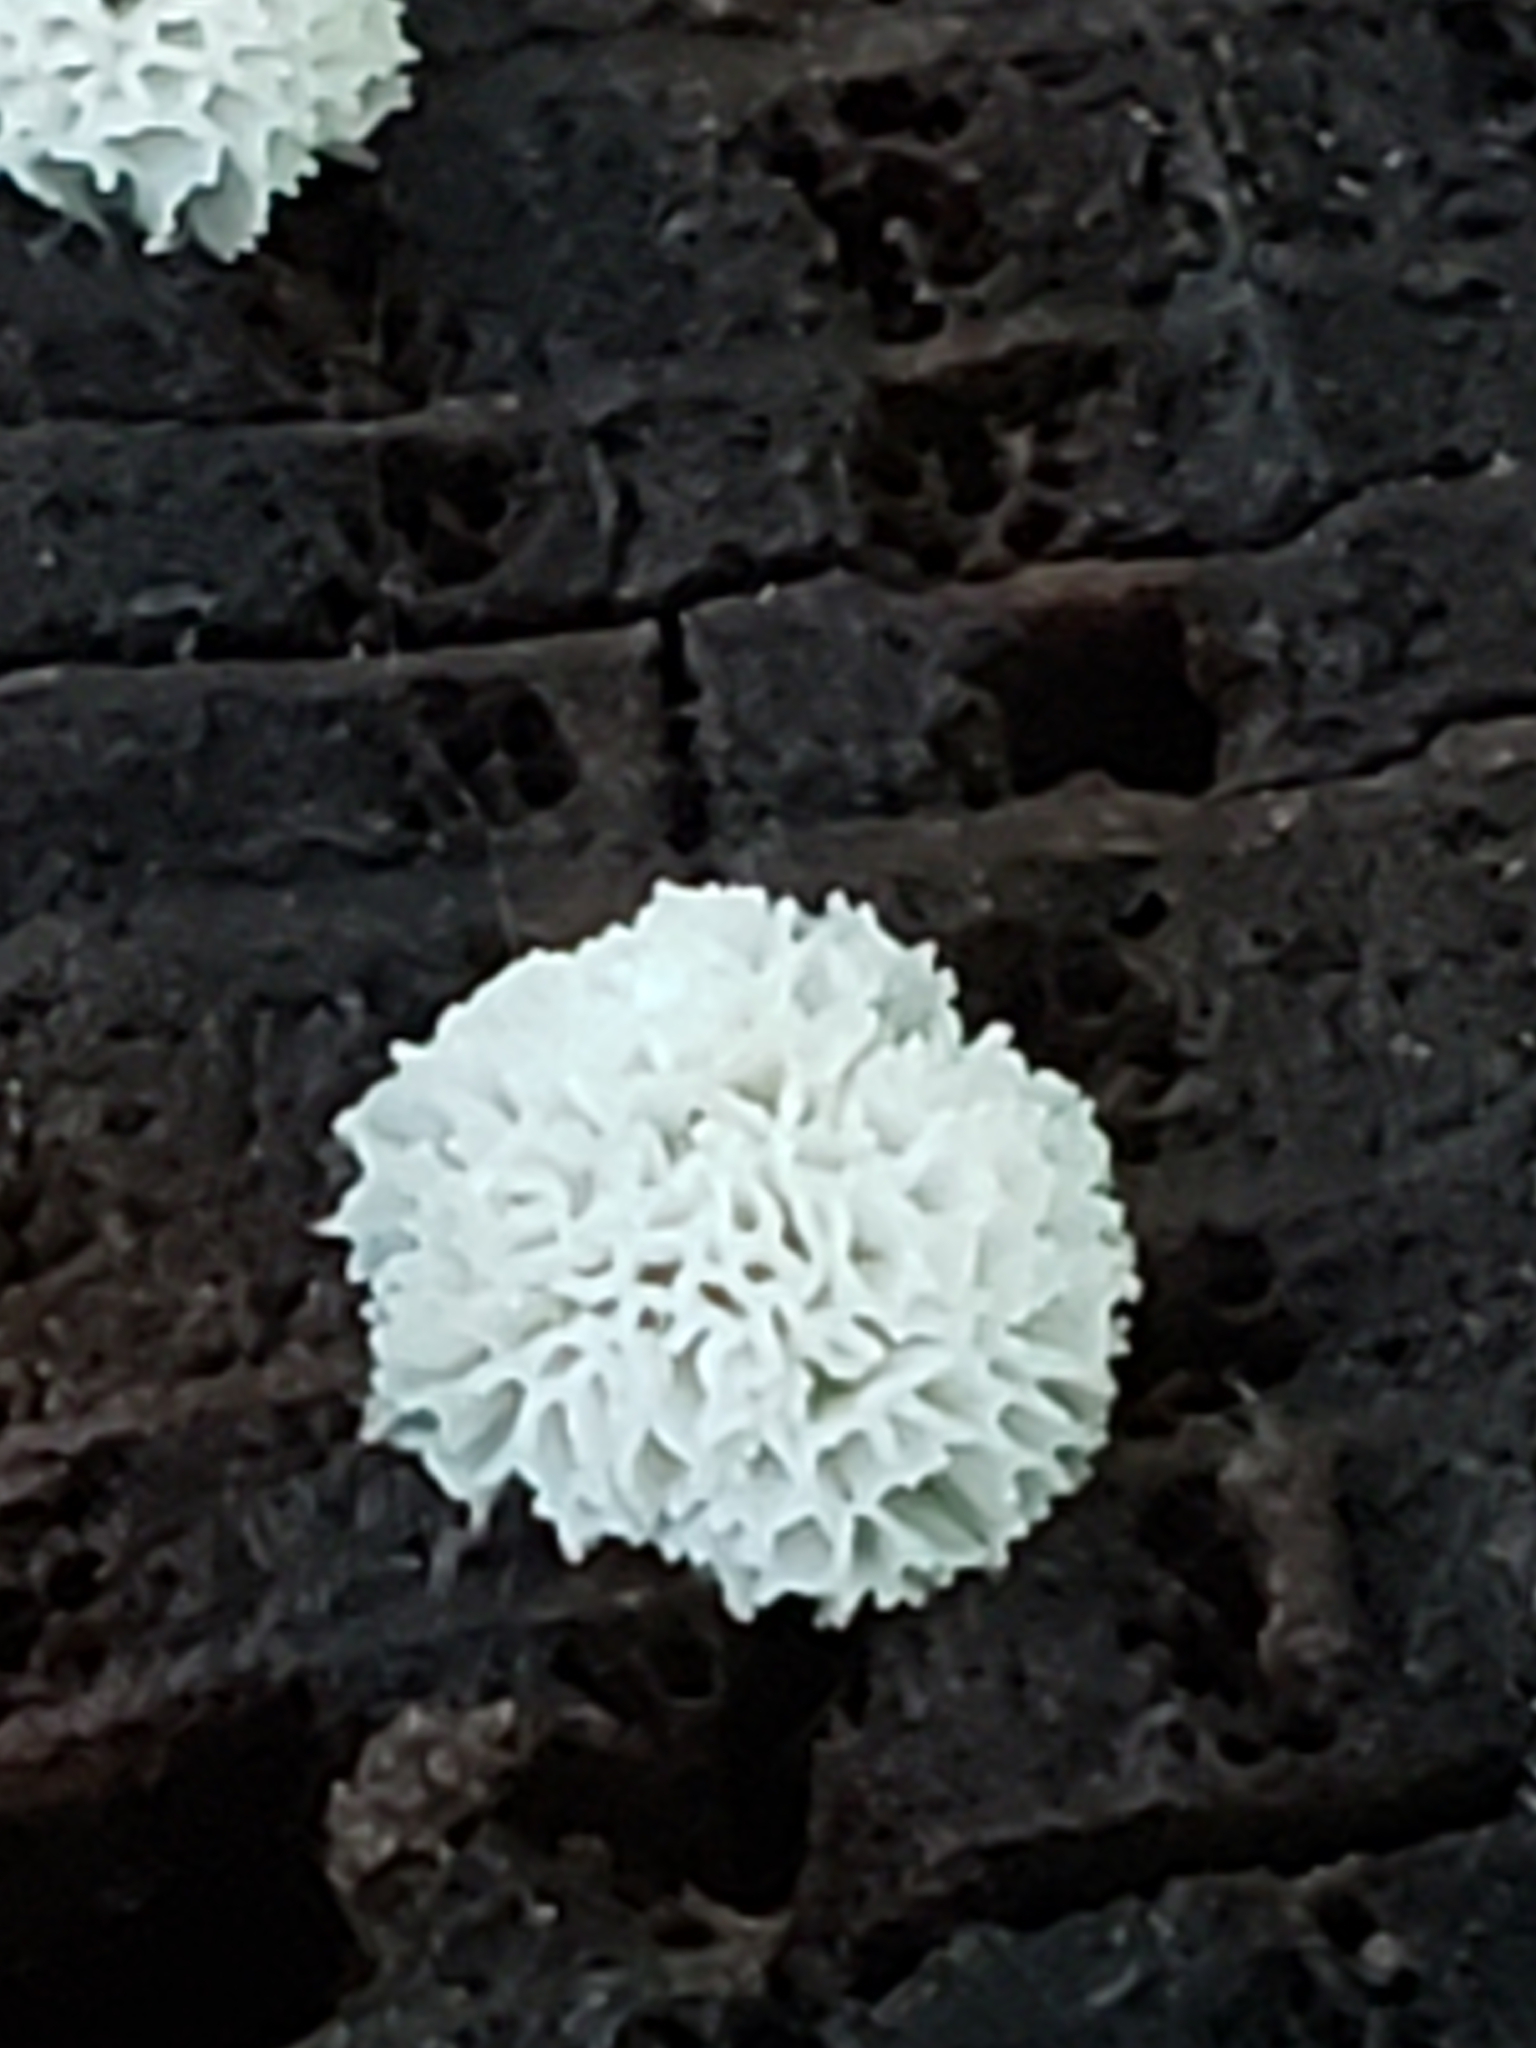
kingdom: Protozoa
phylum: Mycetozoa
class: Protosteliomycetes
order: Ceratiomyxales
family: Ceratiomyxaceae
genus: Ceratiomyxa
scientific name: Ceratiomyxa fruticulosa
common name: Honeycomb coral slime mold
